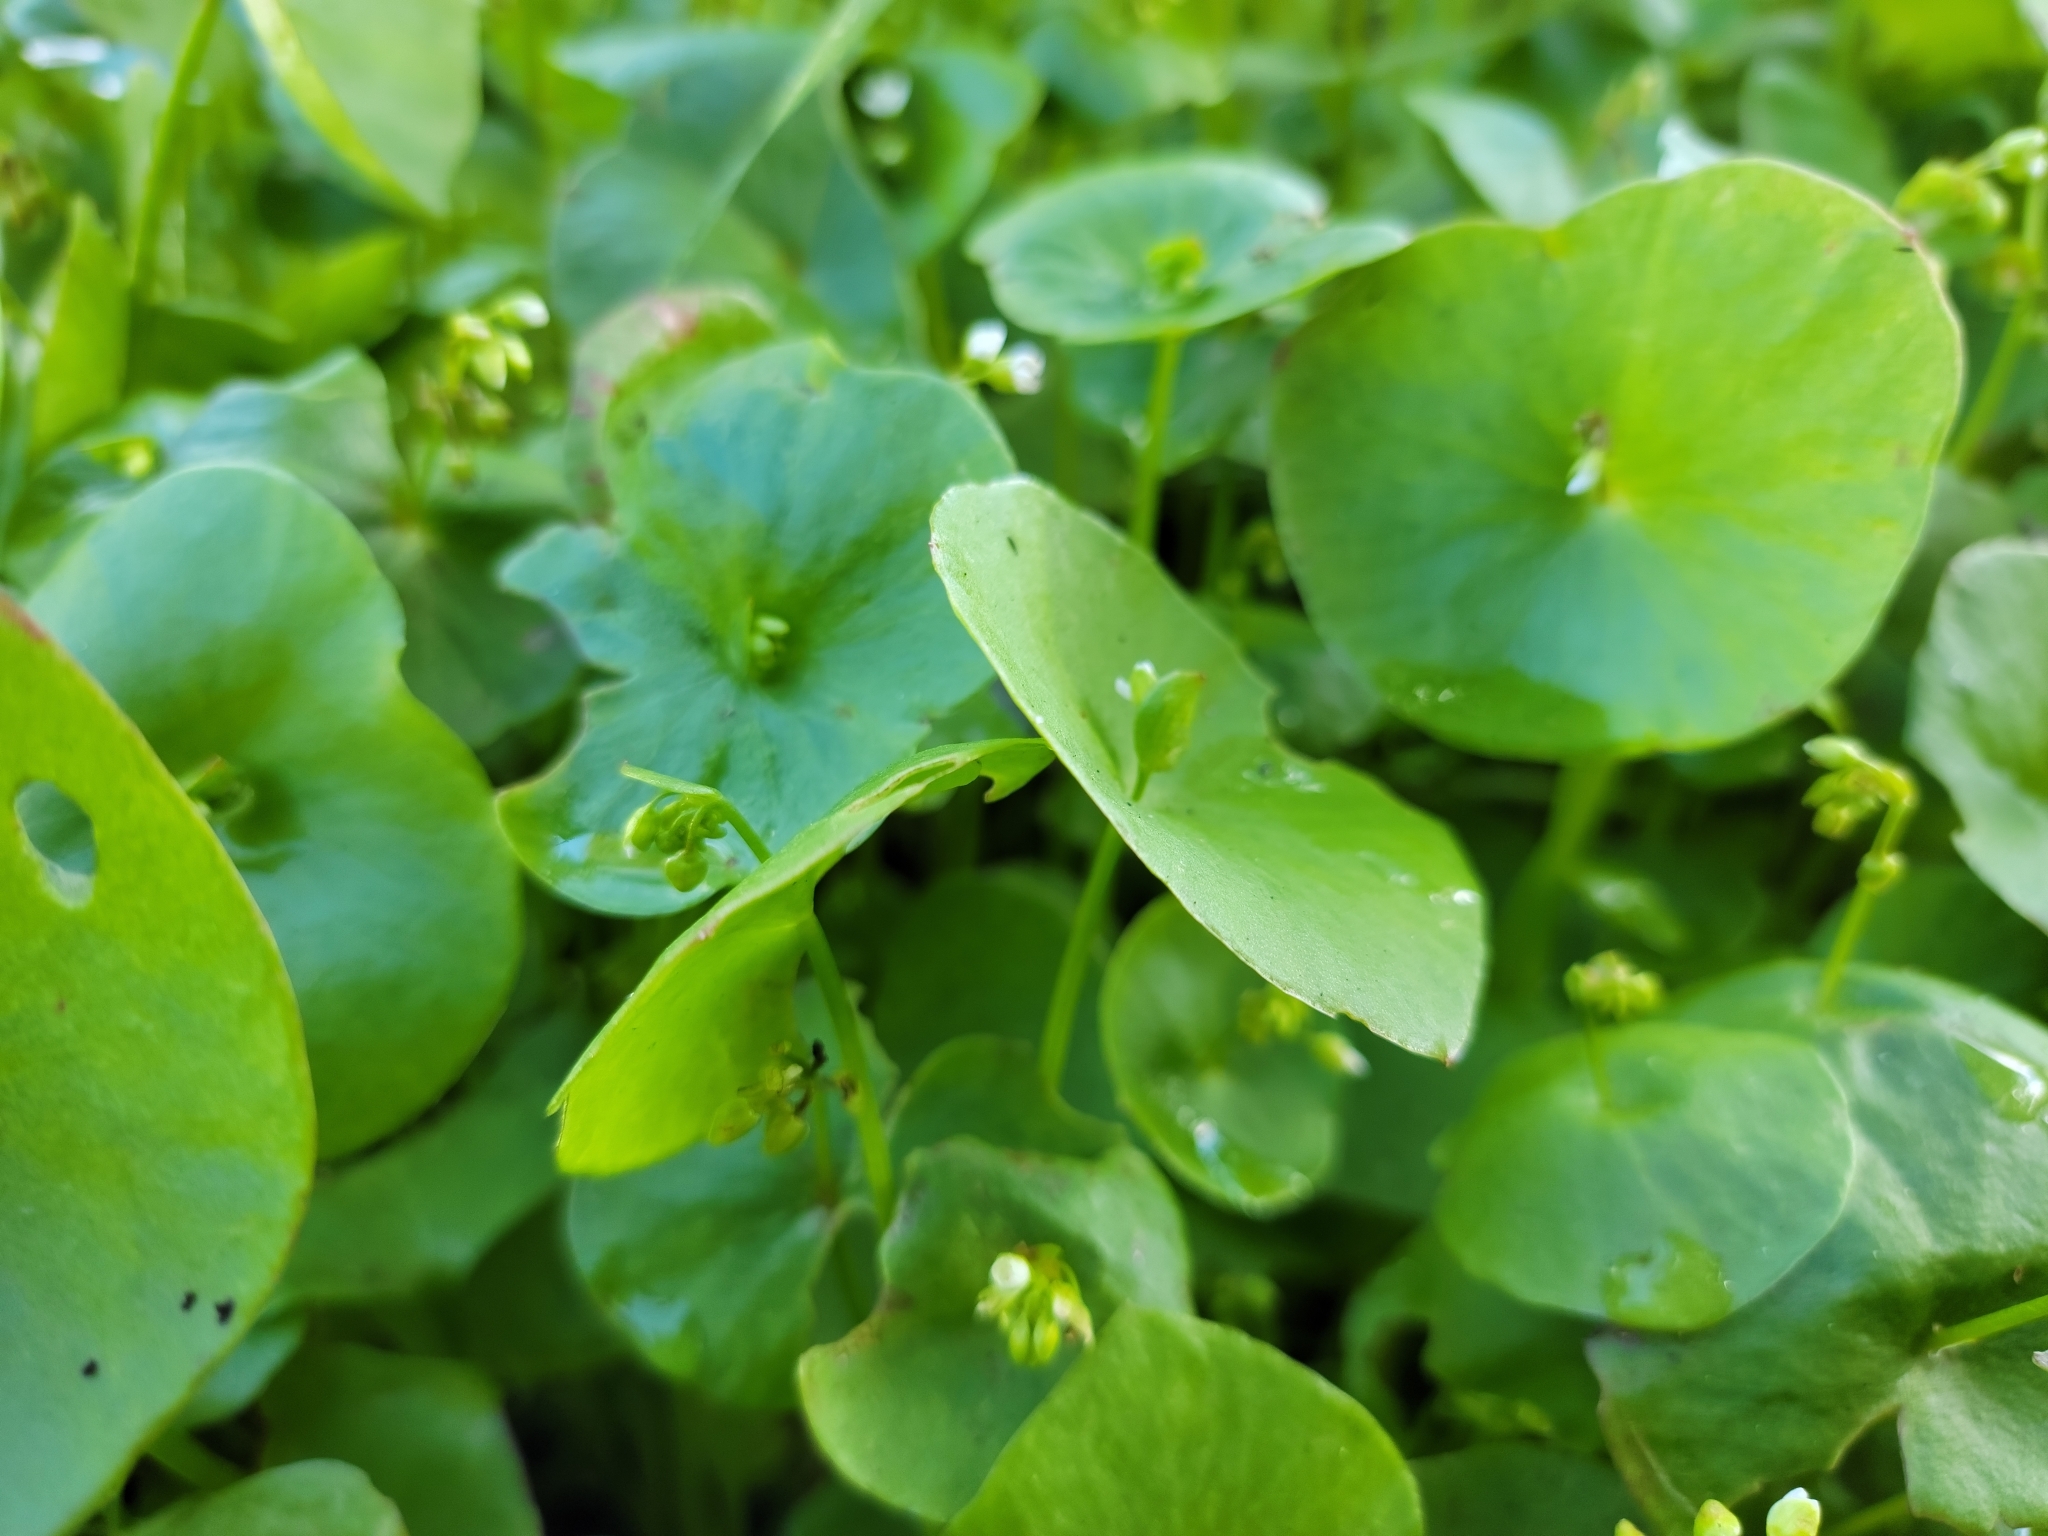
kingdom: Plantae
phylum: Tracheophyta
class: Magnoliopsida
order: Caryophyllales
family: Montiaceae
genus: Claytonia
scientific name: Claytonia perfoliata
